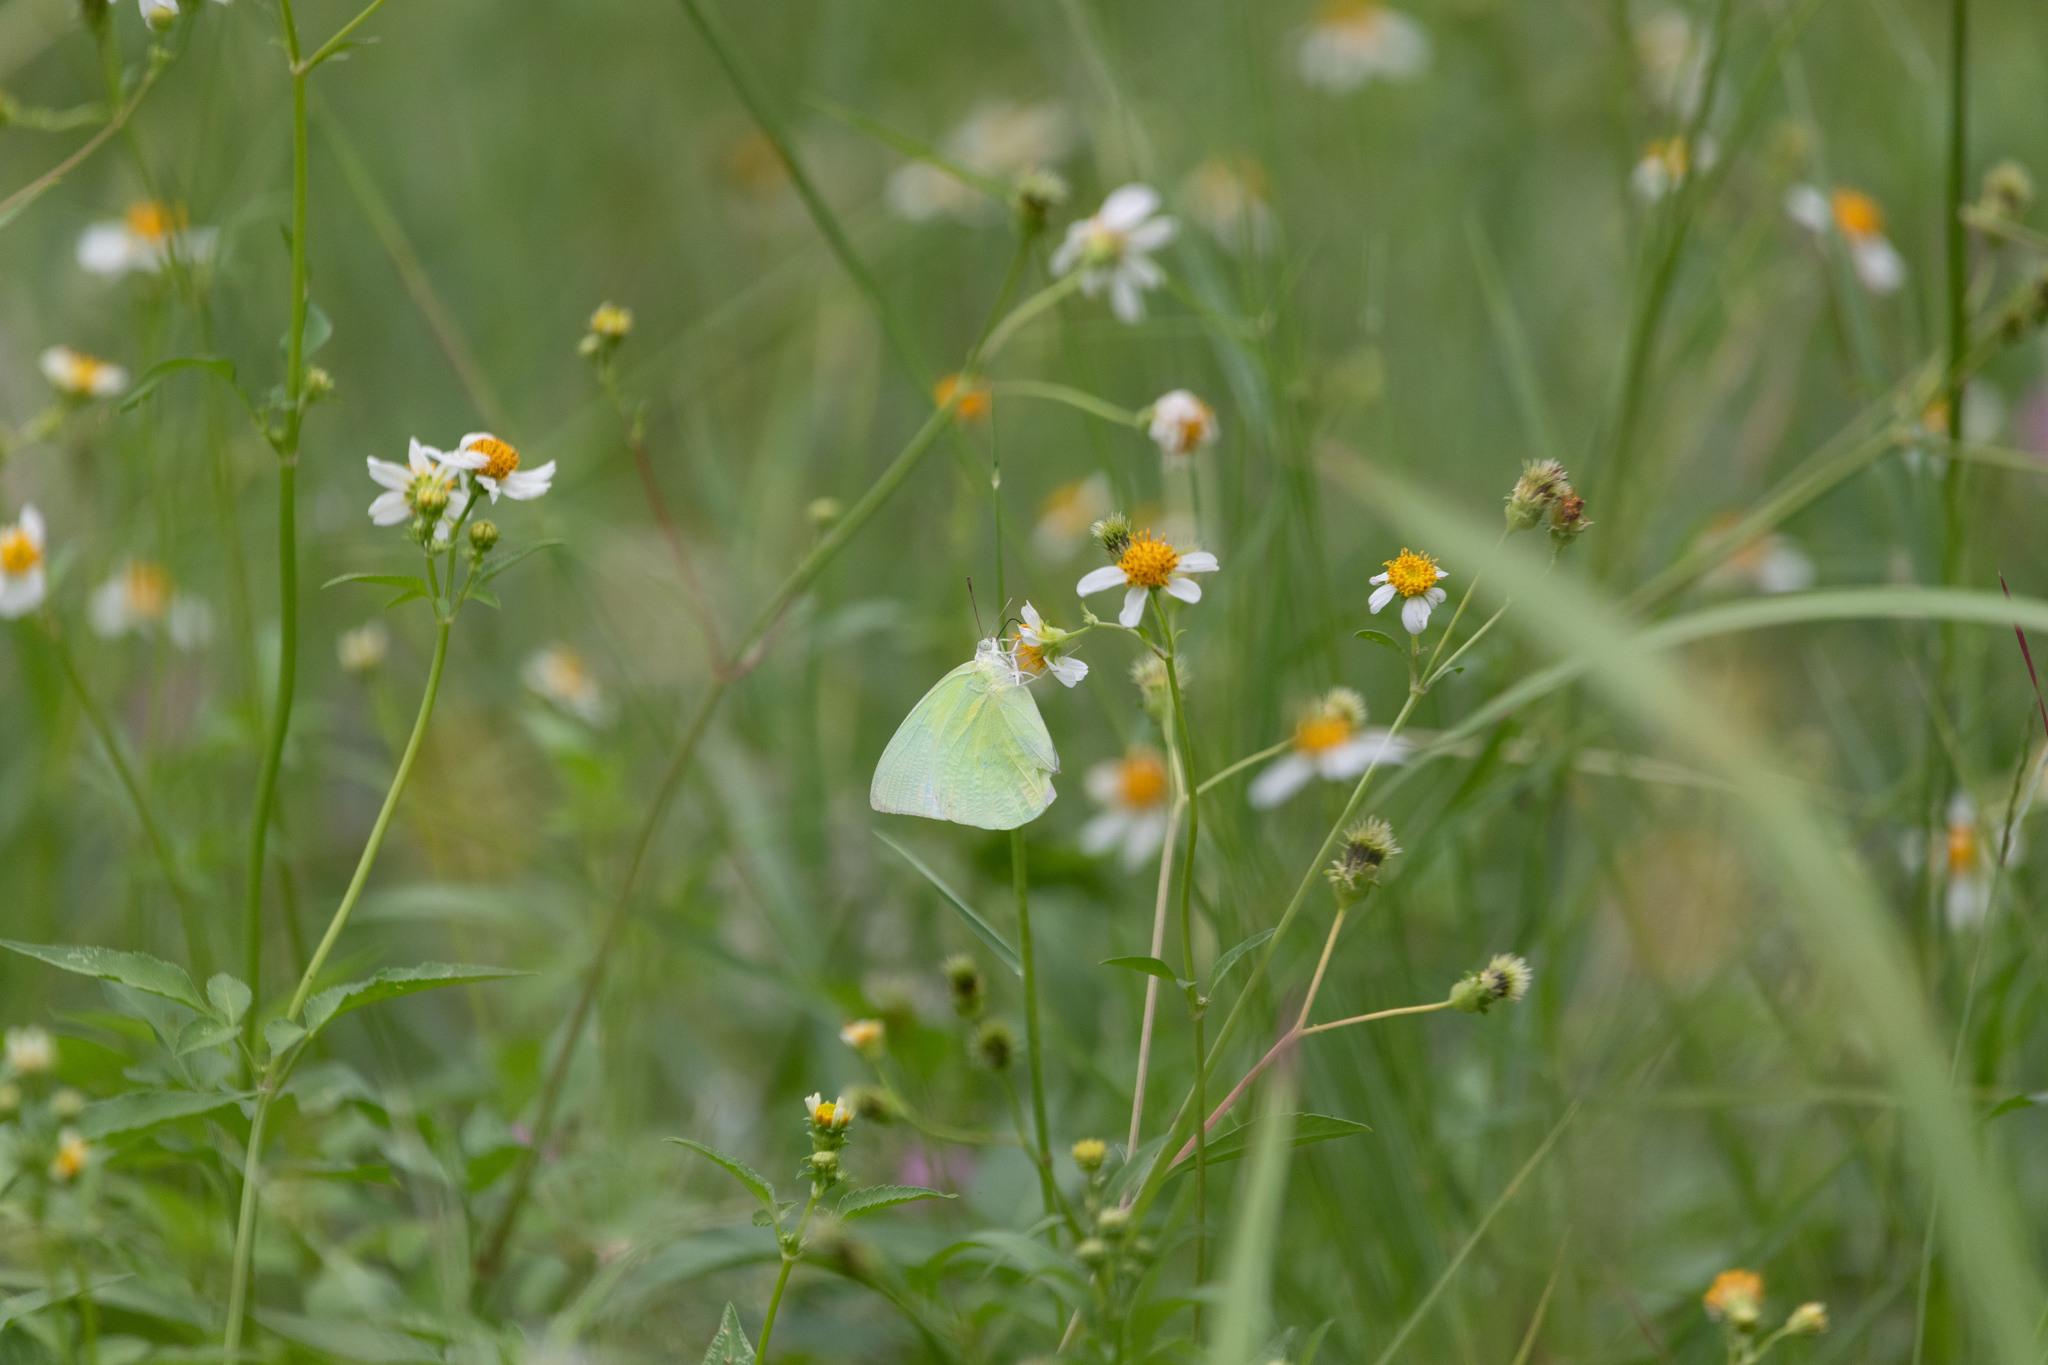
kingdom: Animalia
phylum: Arthropoda
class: Insecta
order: Lepidoptera
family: Pieridae
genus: Catopsilia
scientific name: Catopsilia pomona
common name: Common emigrant
